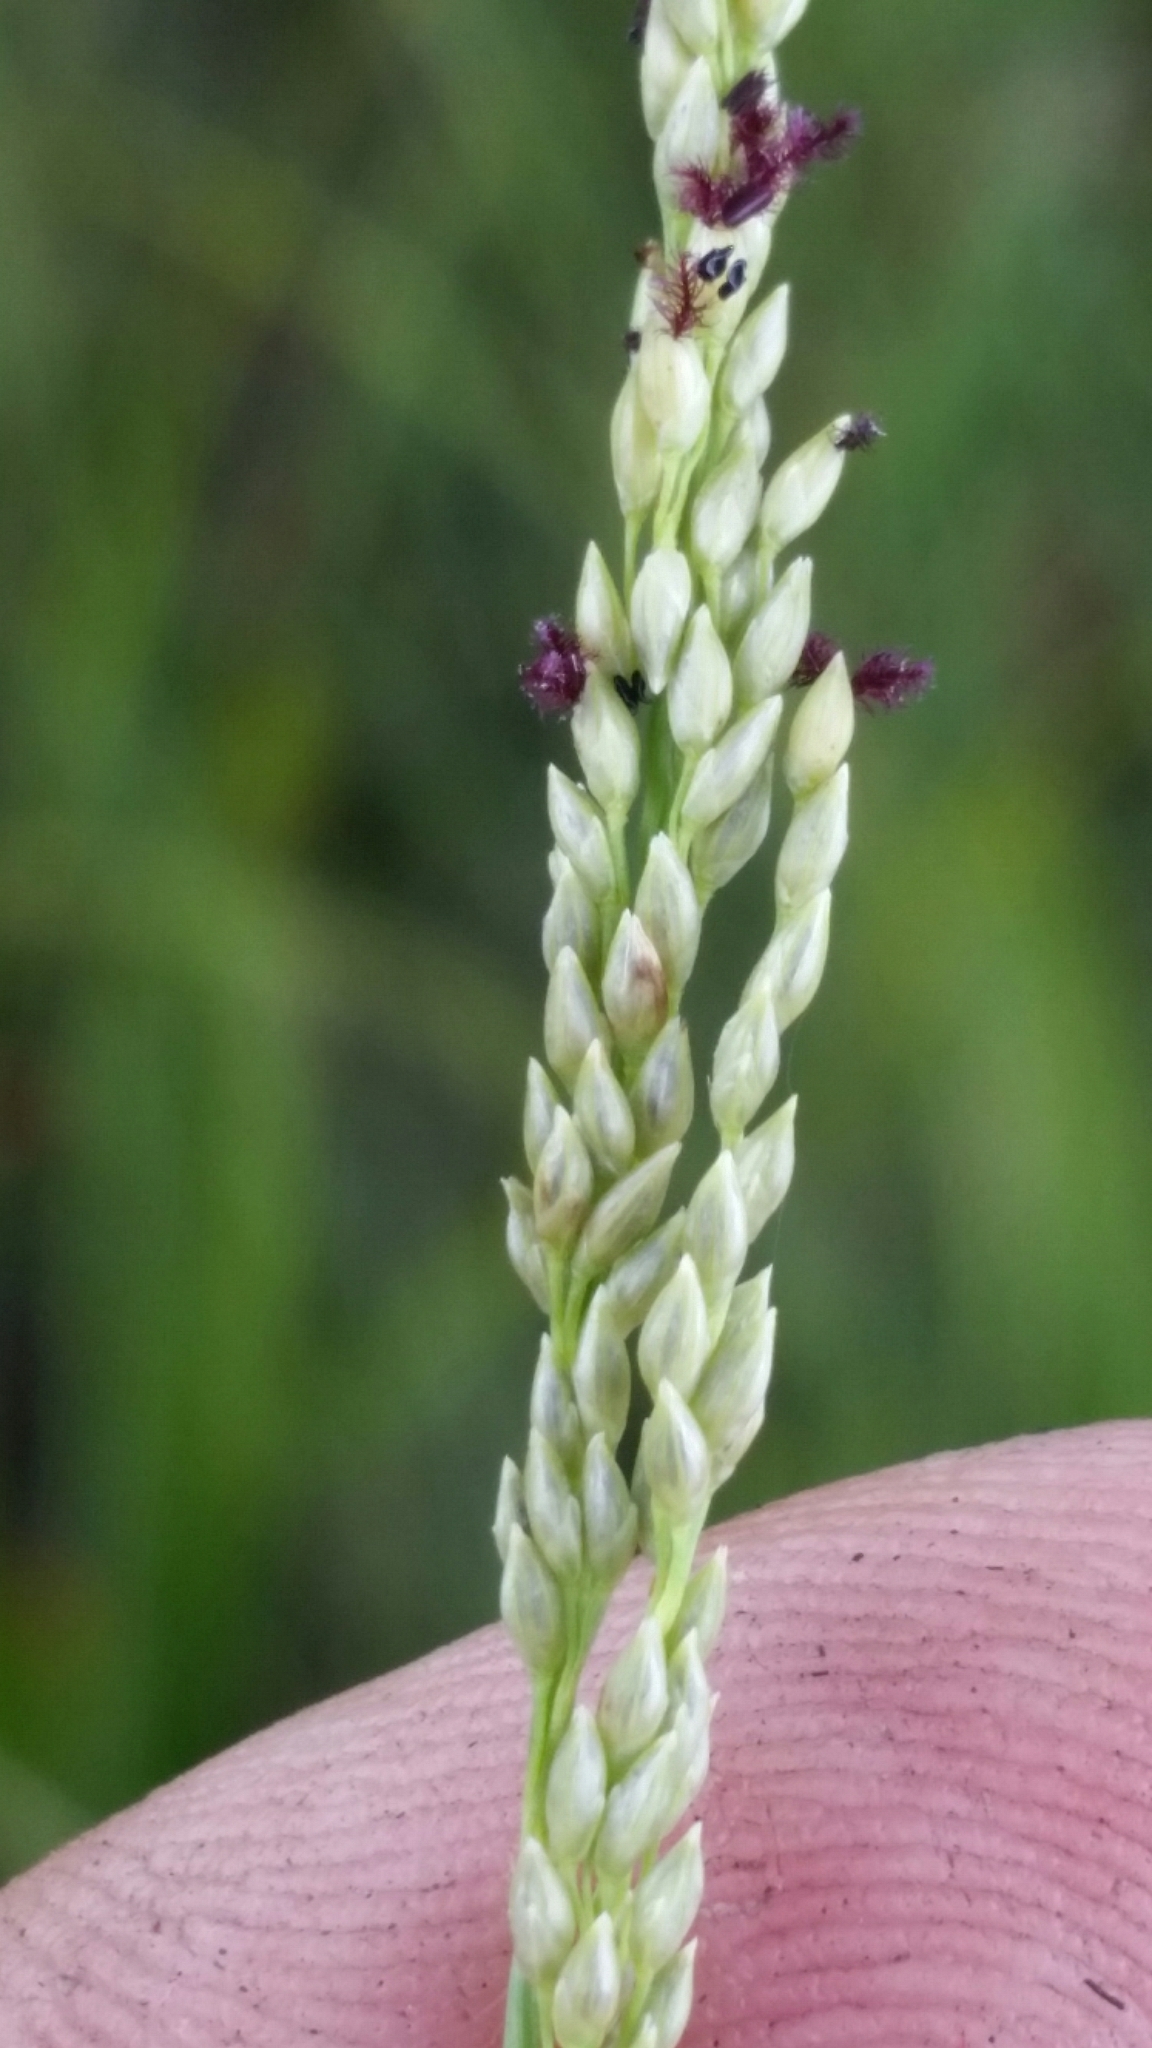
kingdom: Plantae
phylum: Tracheophyta
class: Liliopsida
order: Poales
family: Poaceae
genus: Coleataenia
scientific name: Coleataenia tenera
